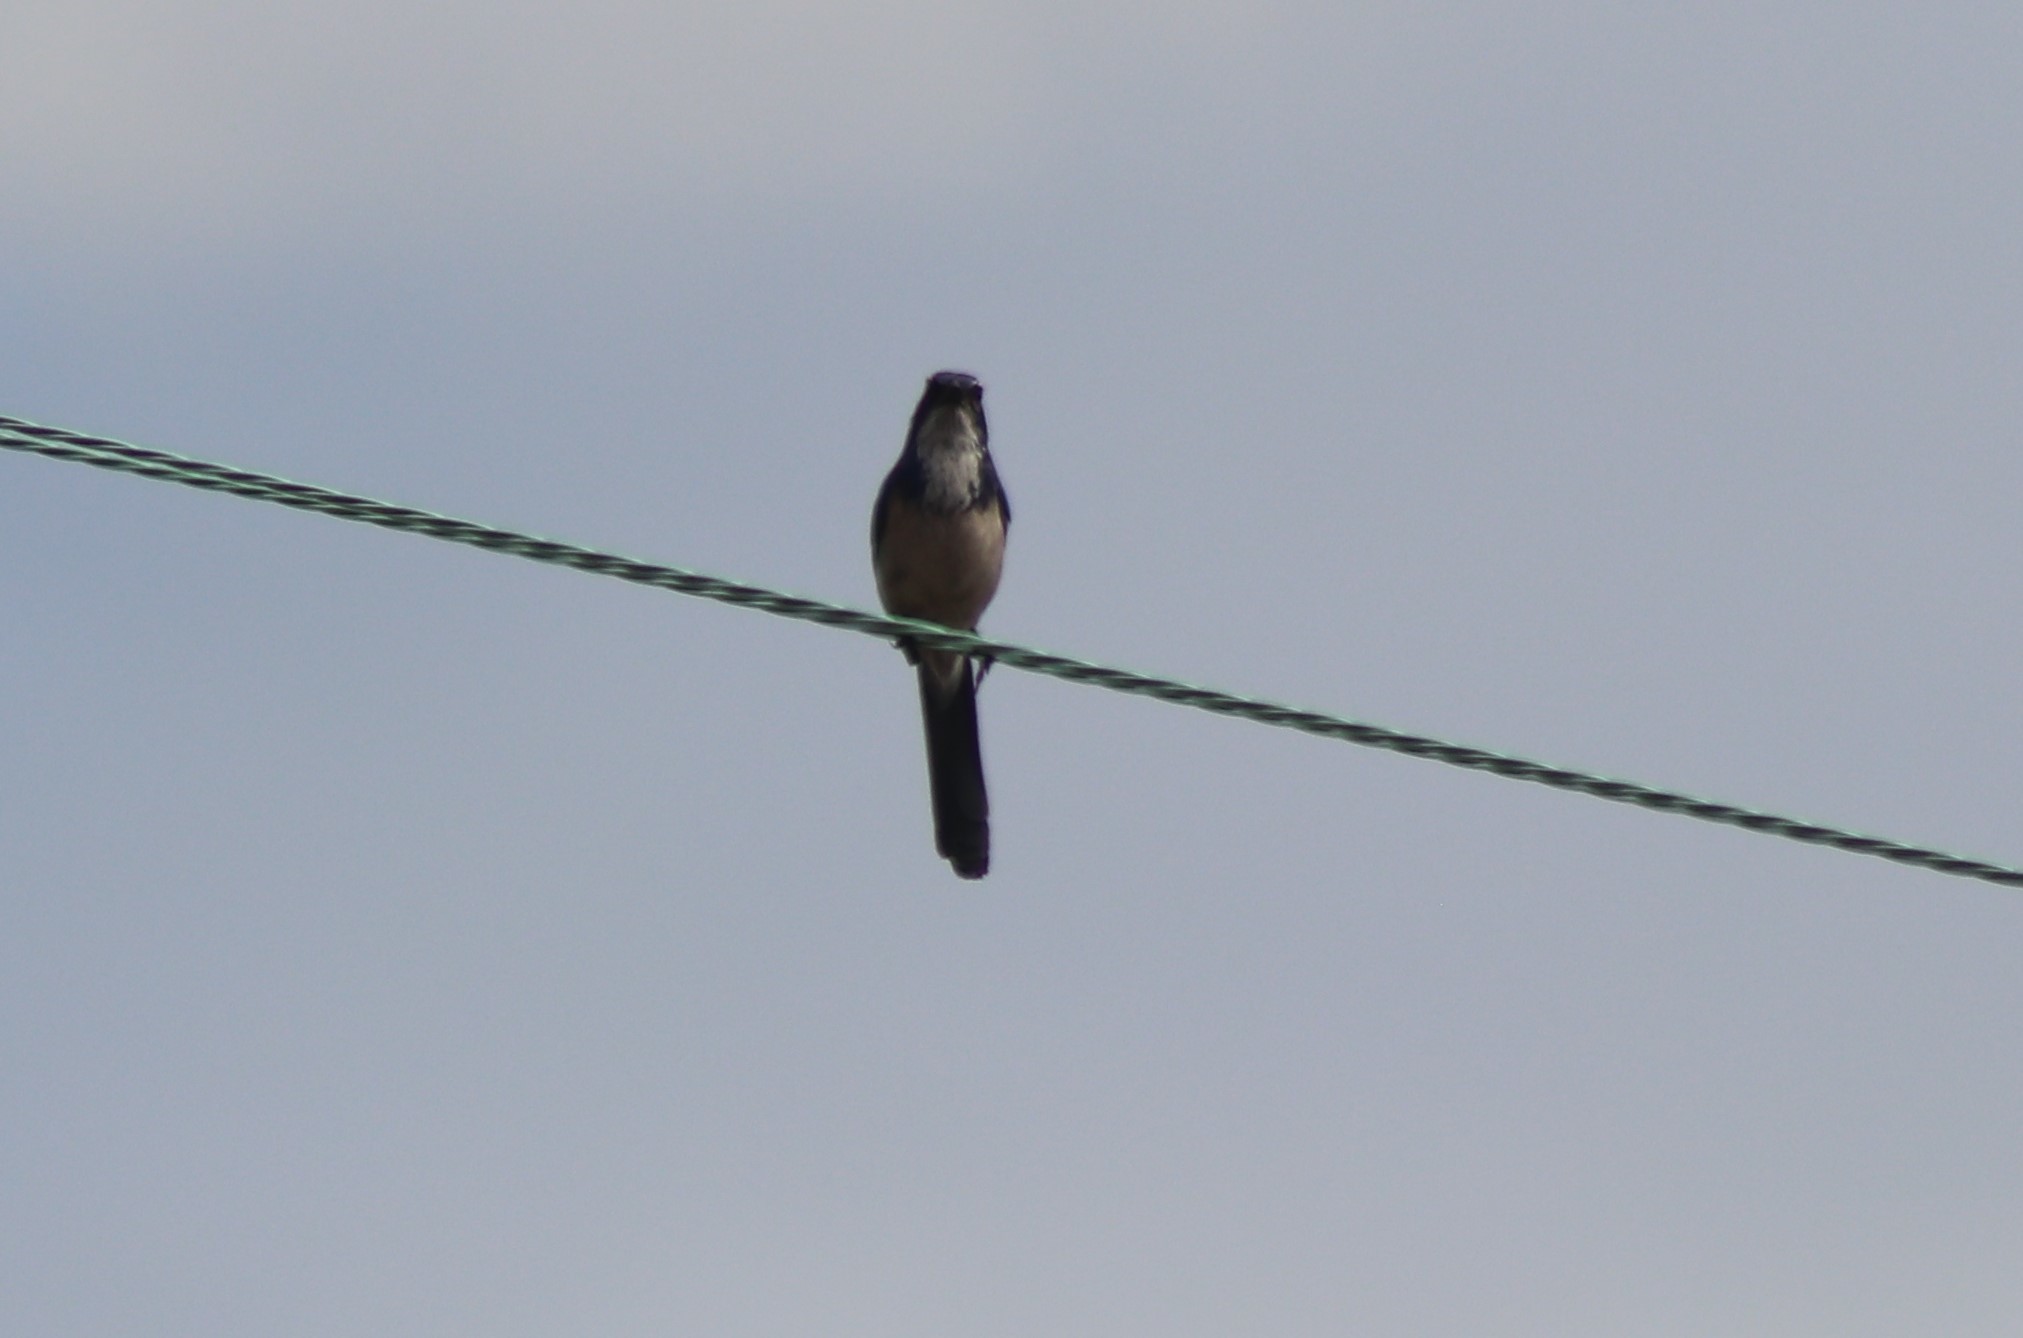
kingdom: Animalia
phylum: Chordata
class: Aves
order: Passeriformes
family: Corvidae
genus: Aphelocoma
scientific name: Aphelocoma californica
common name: California scrub-jay
